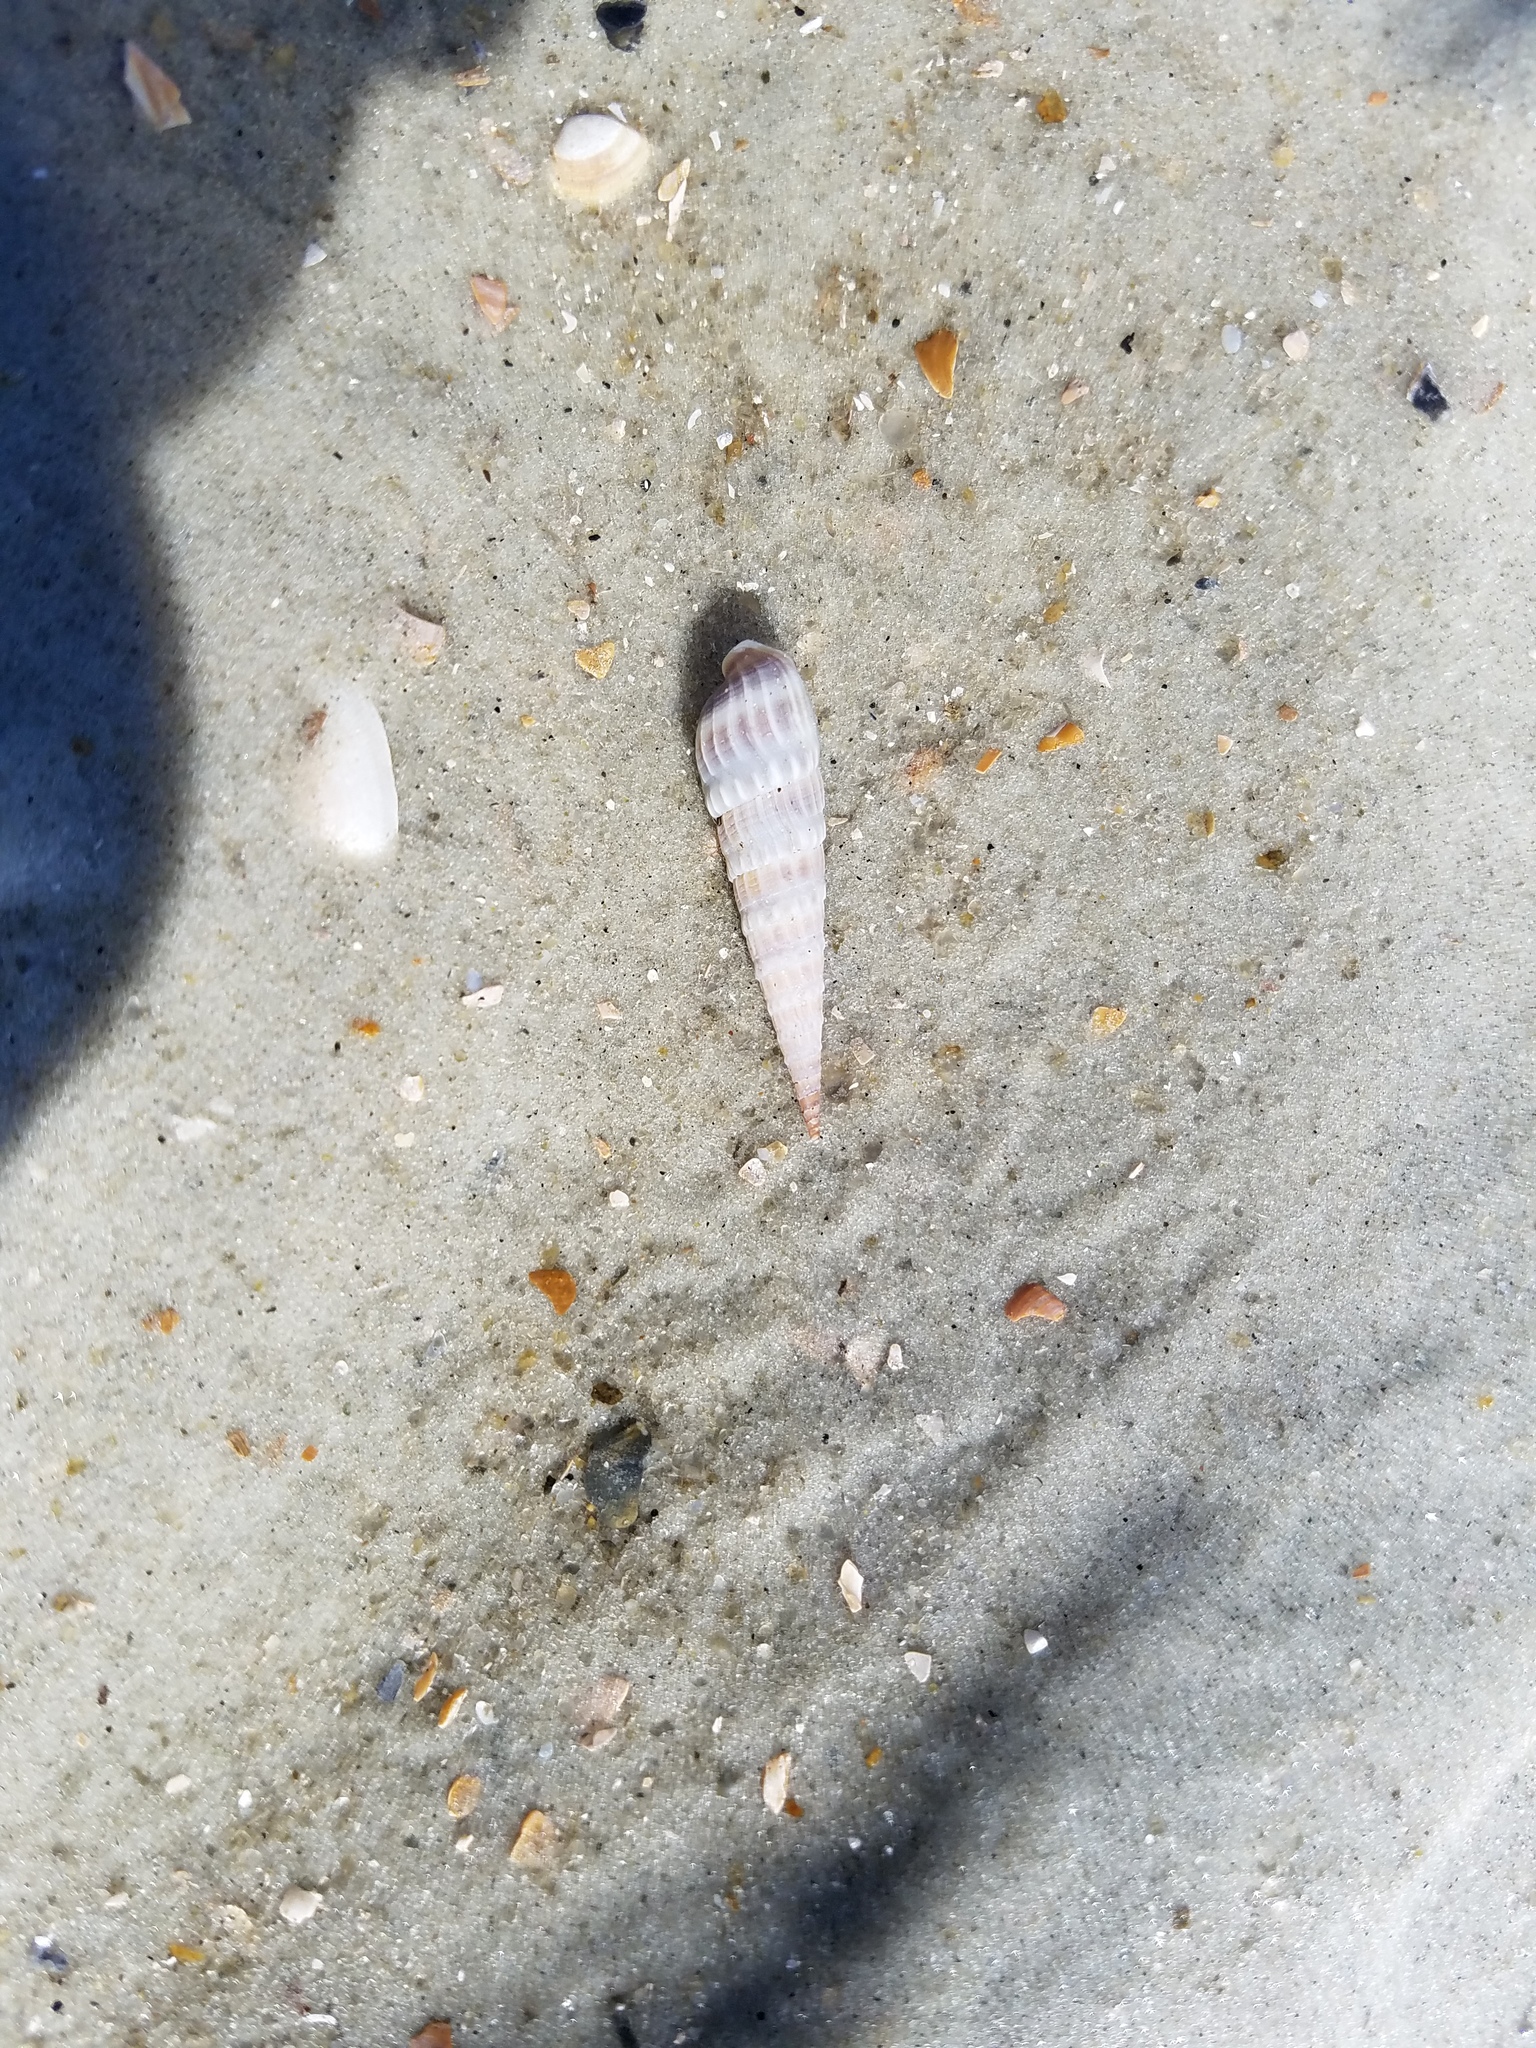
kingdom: Animalia
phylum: Mollusca
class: Gastropoda
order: Neogastropoda
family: Terebridae
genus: Neoterebra
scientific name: Neoterebra dislocata
